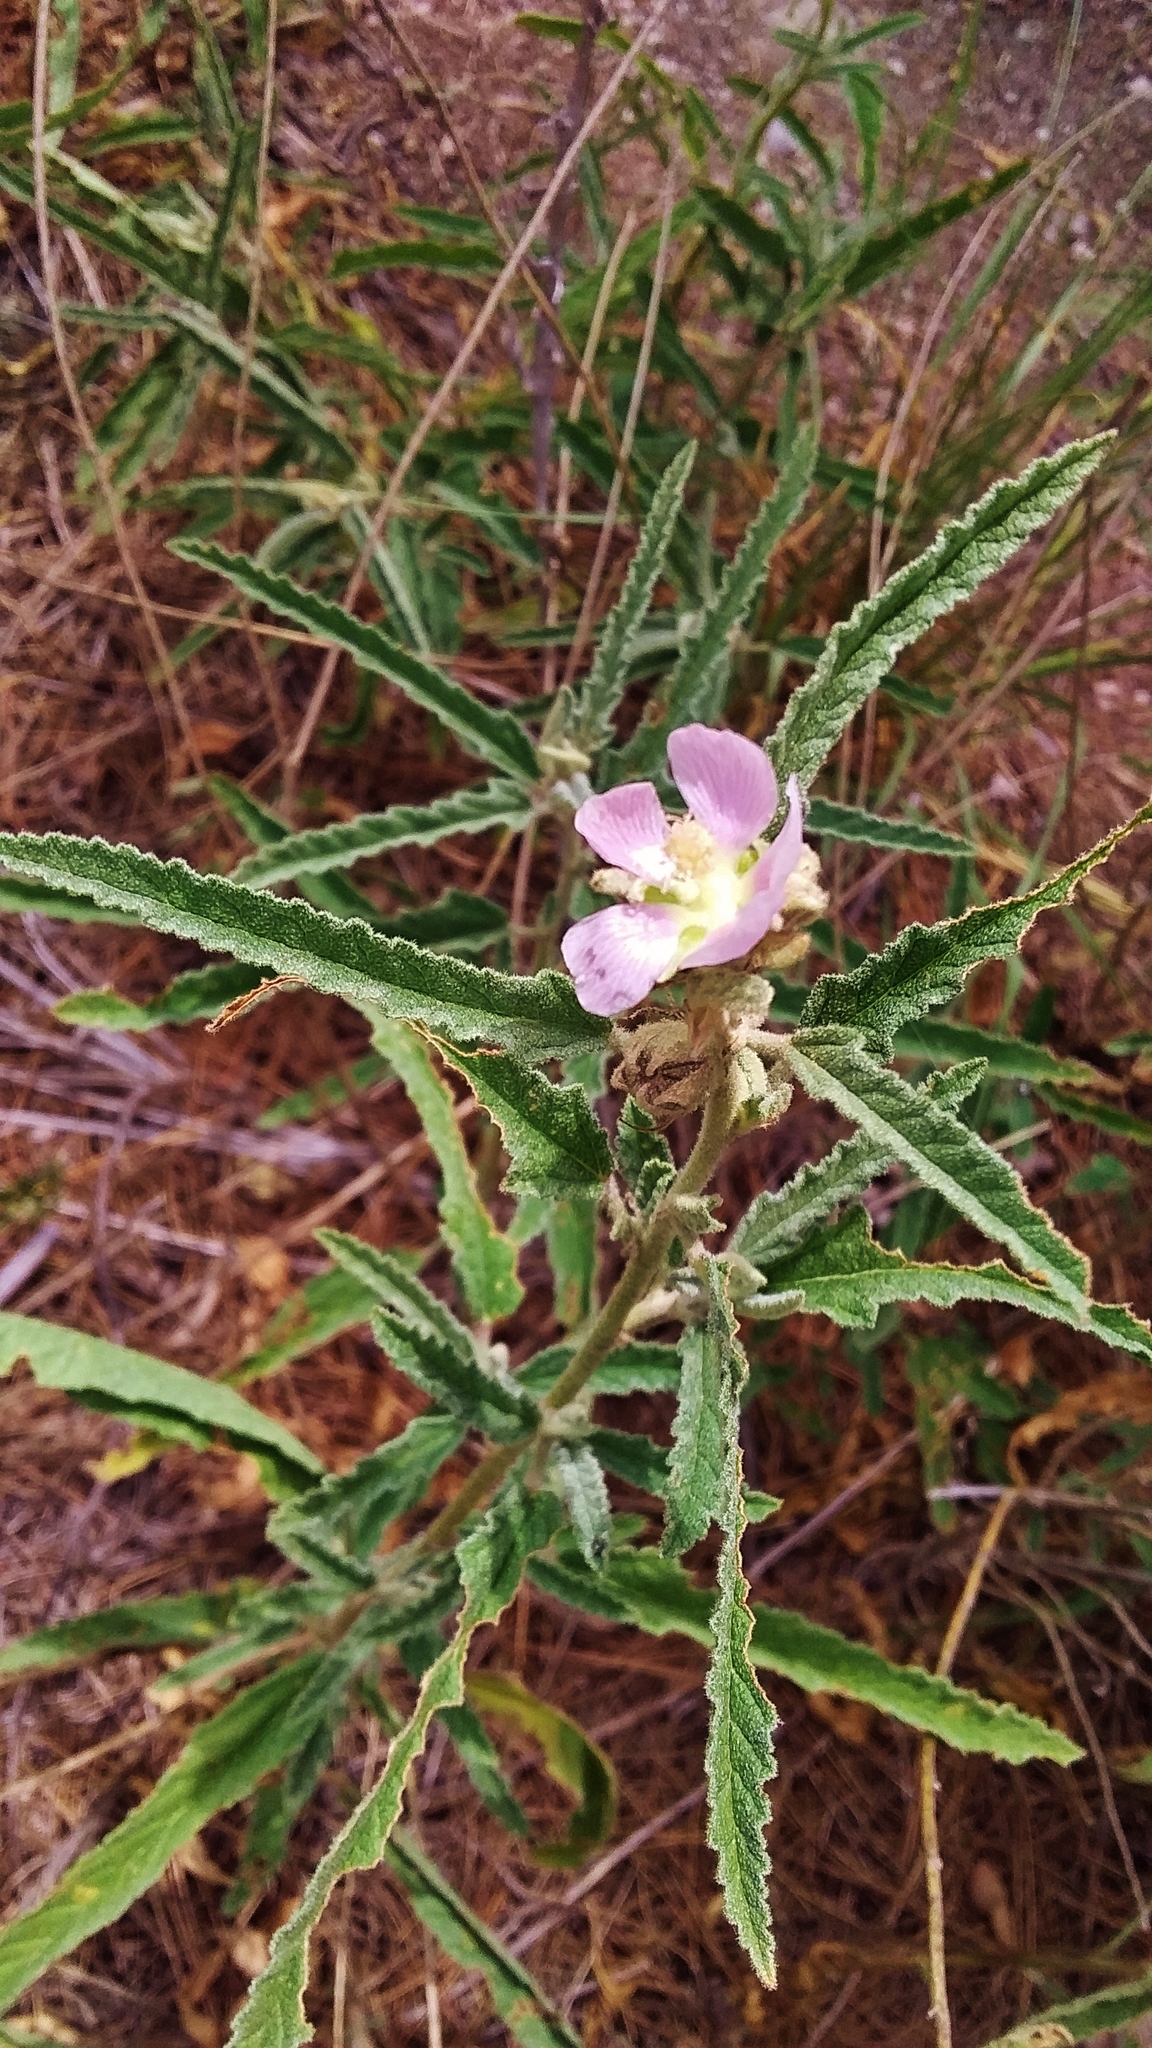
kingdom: Plantae
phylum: Tracheophyta
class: Magnoliopsida
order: Malvales
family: Malvaceae
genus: Sphaeralcea
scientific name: Sphaeralcea angustifolia
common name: Copper globe-mallow
